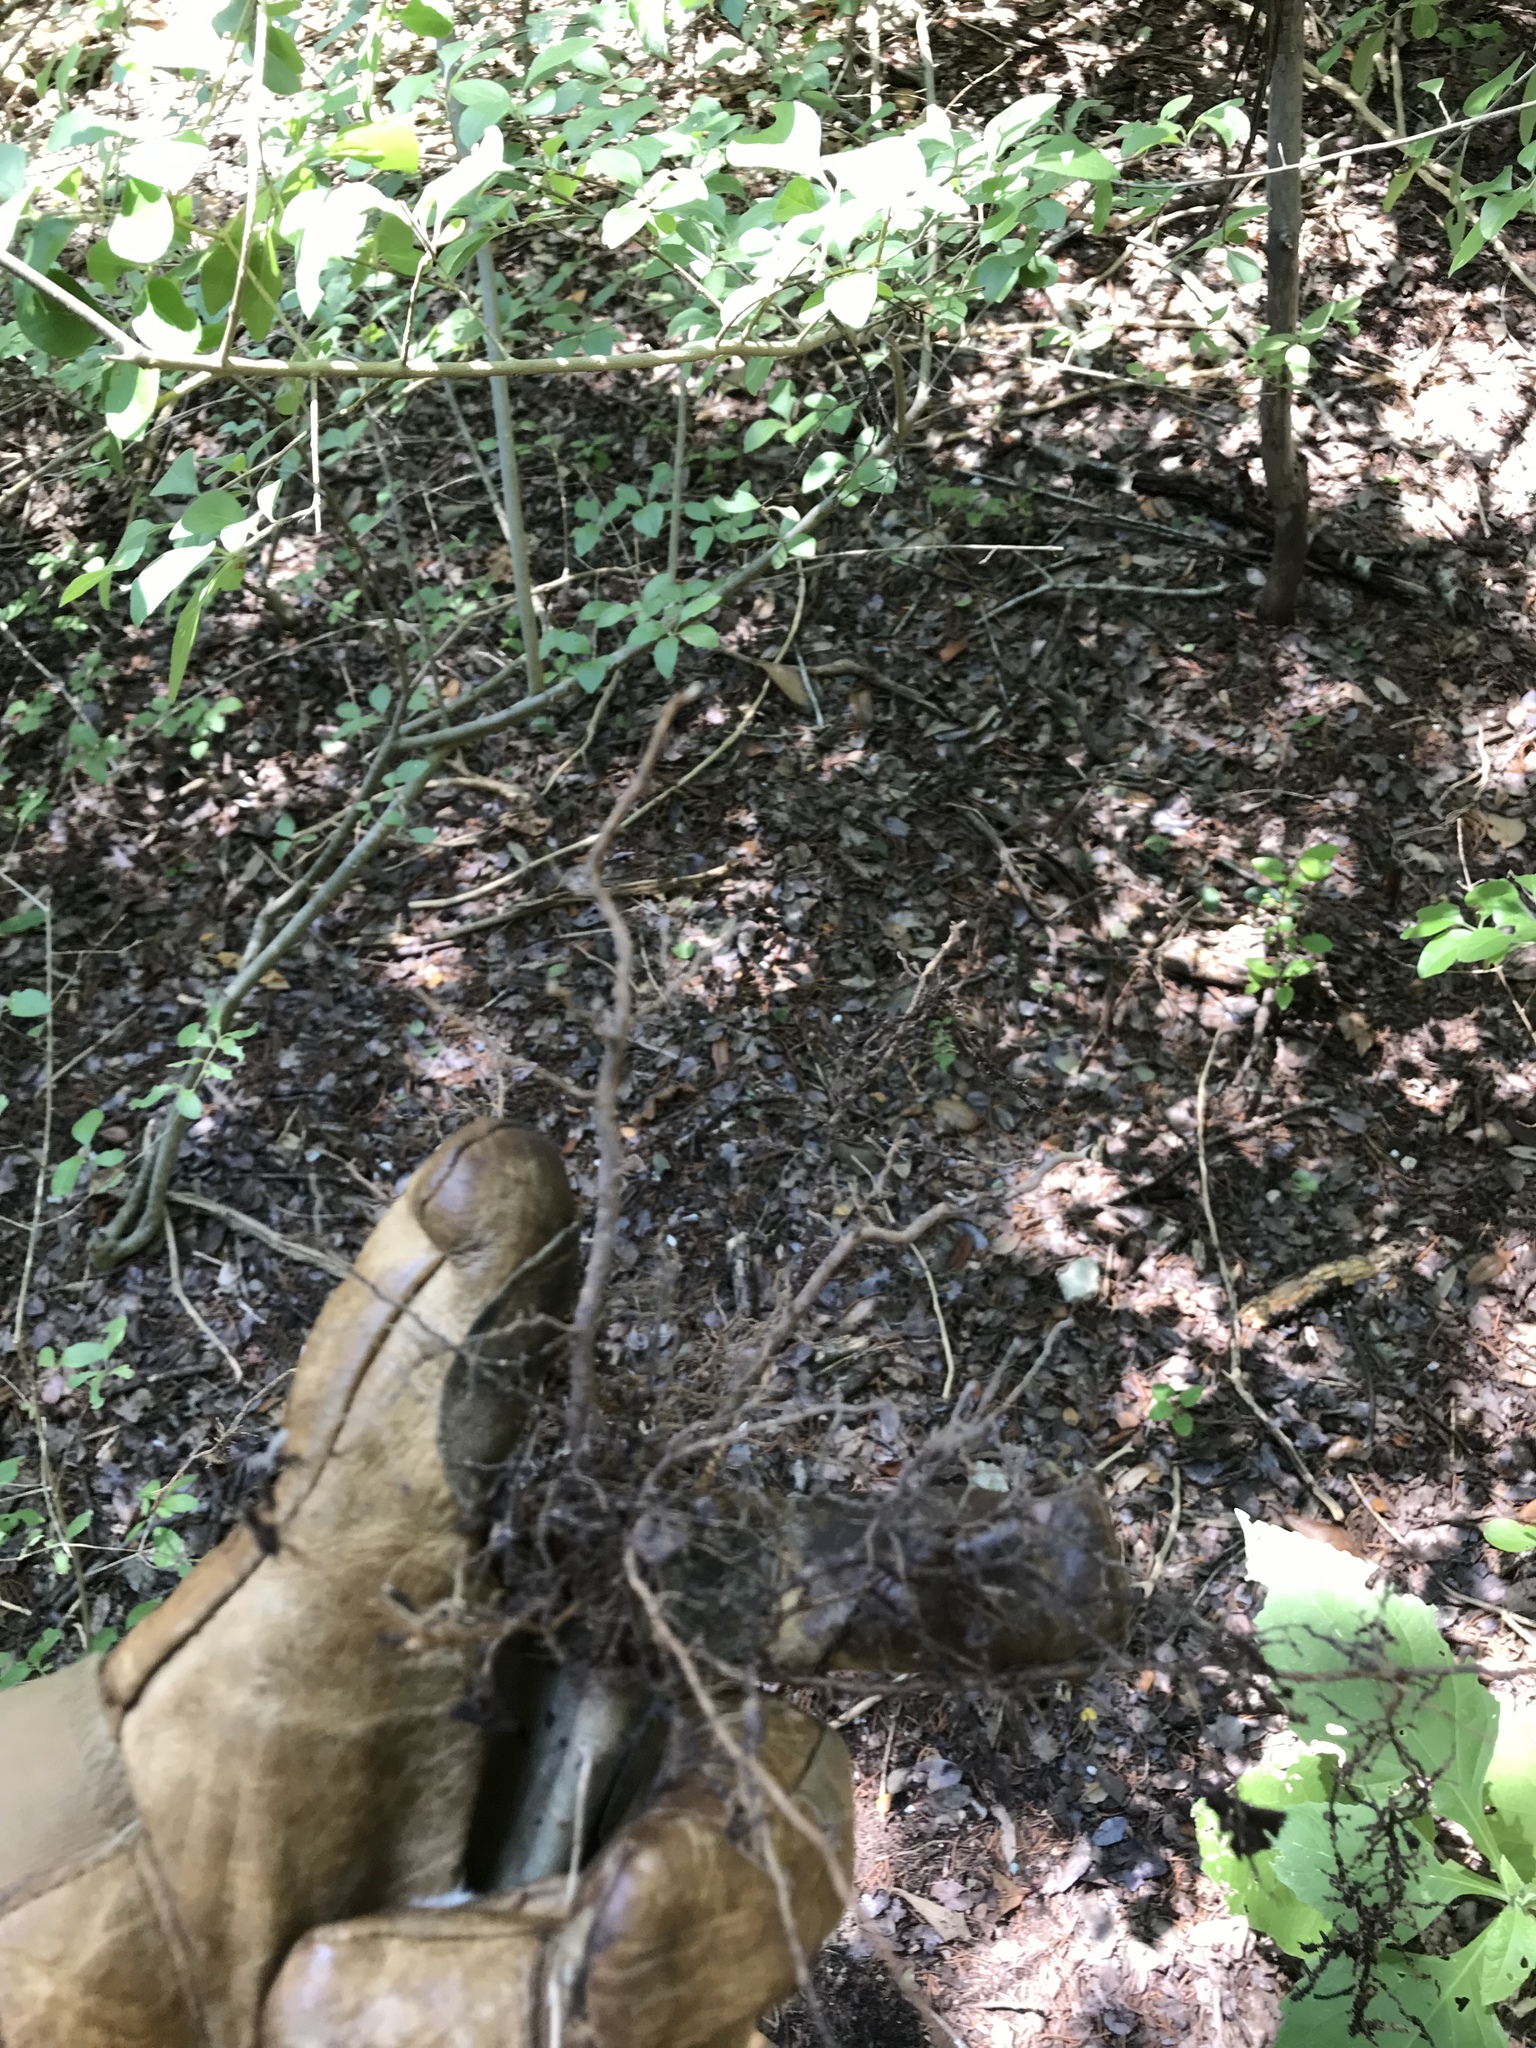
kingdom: Plantae
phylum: Tracheophyta
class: Magnoliopsida
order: Lamiales
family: Oleaceae
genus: Ligustrum
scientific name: Ligustrum lucidum
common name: Glossy privet
